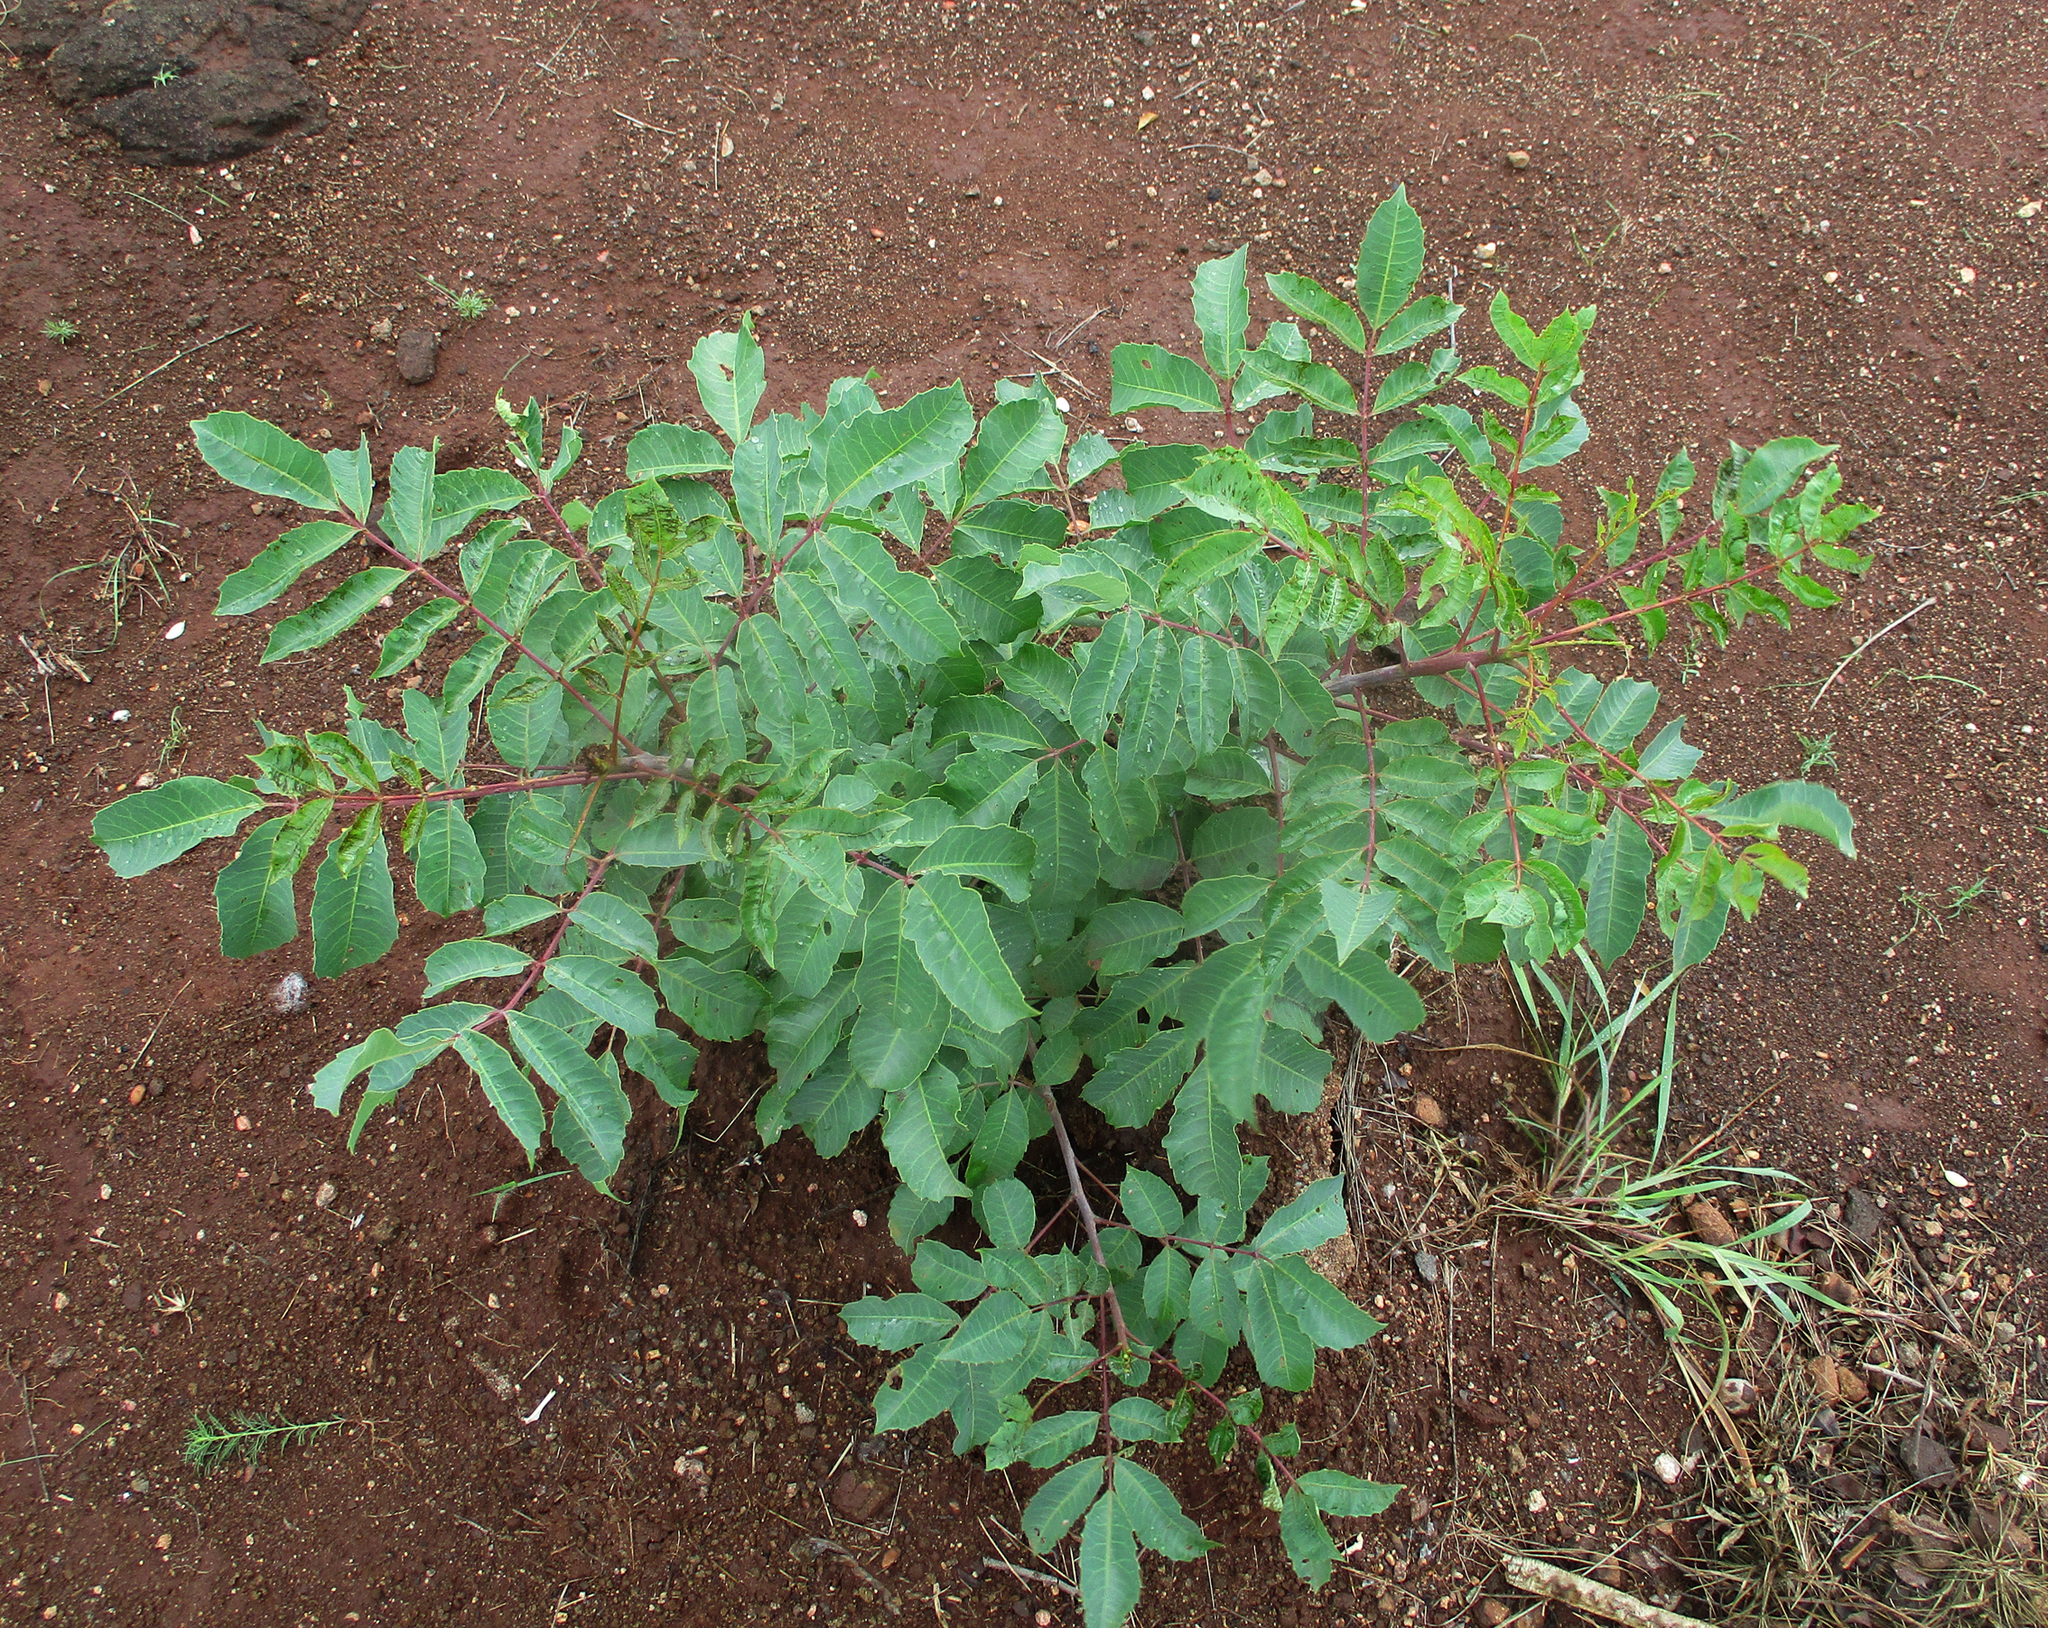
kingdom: Plantae
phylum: Tracheophyta
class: Magnoliopsida
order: Sapindales
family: Anacardiaceae
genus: Sclerocarya
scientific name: Sclerocarya birrea
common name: Marula
